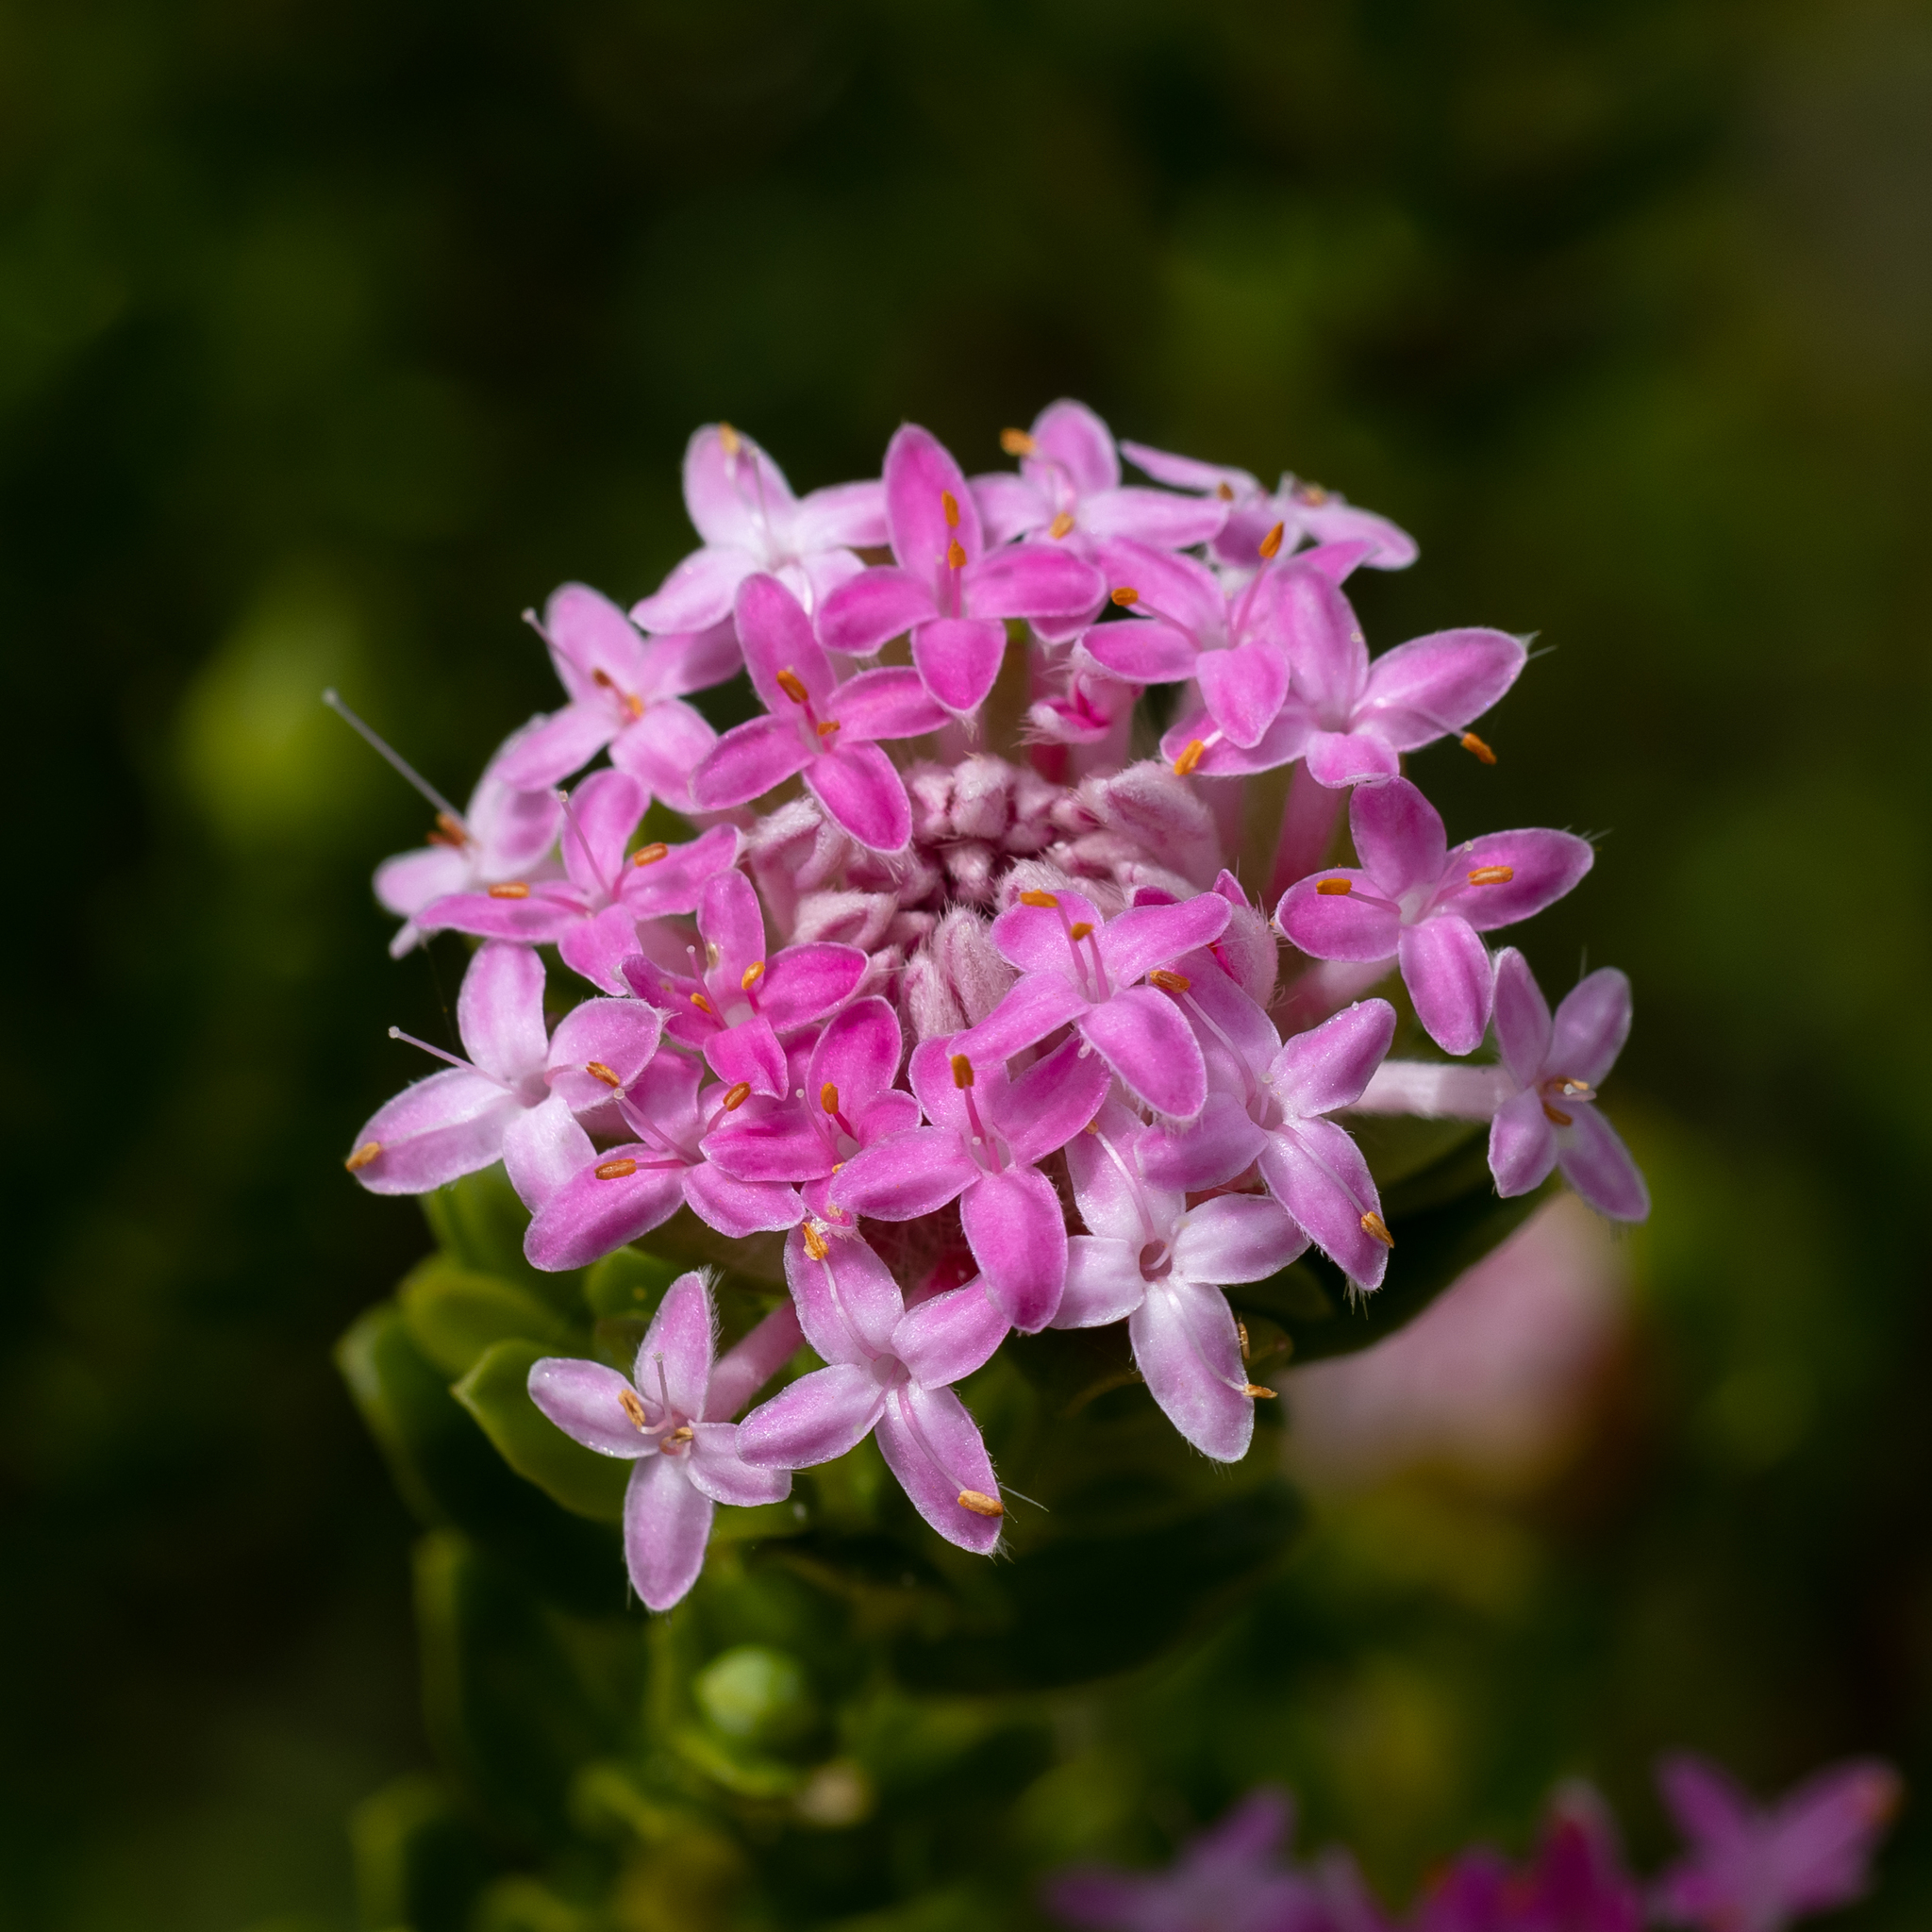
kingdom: Plantae
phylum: Tracheophyta
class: Magnoliopsida
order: Malvales
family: Thymelaeaceae
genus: Pimelea
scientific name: Pimelea ferruginea
